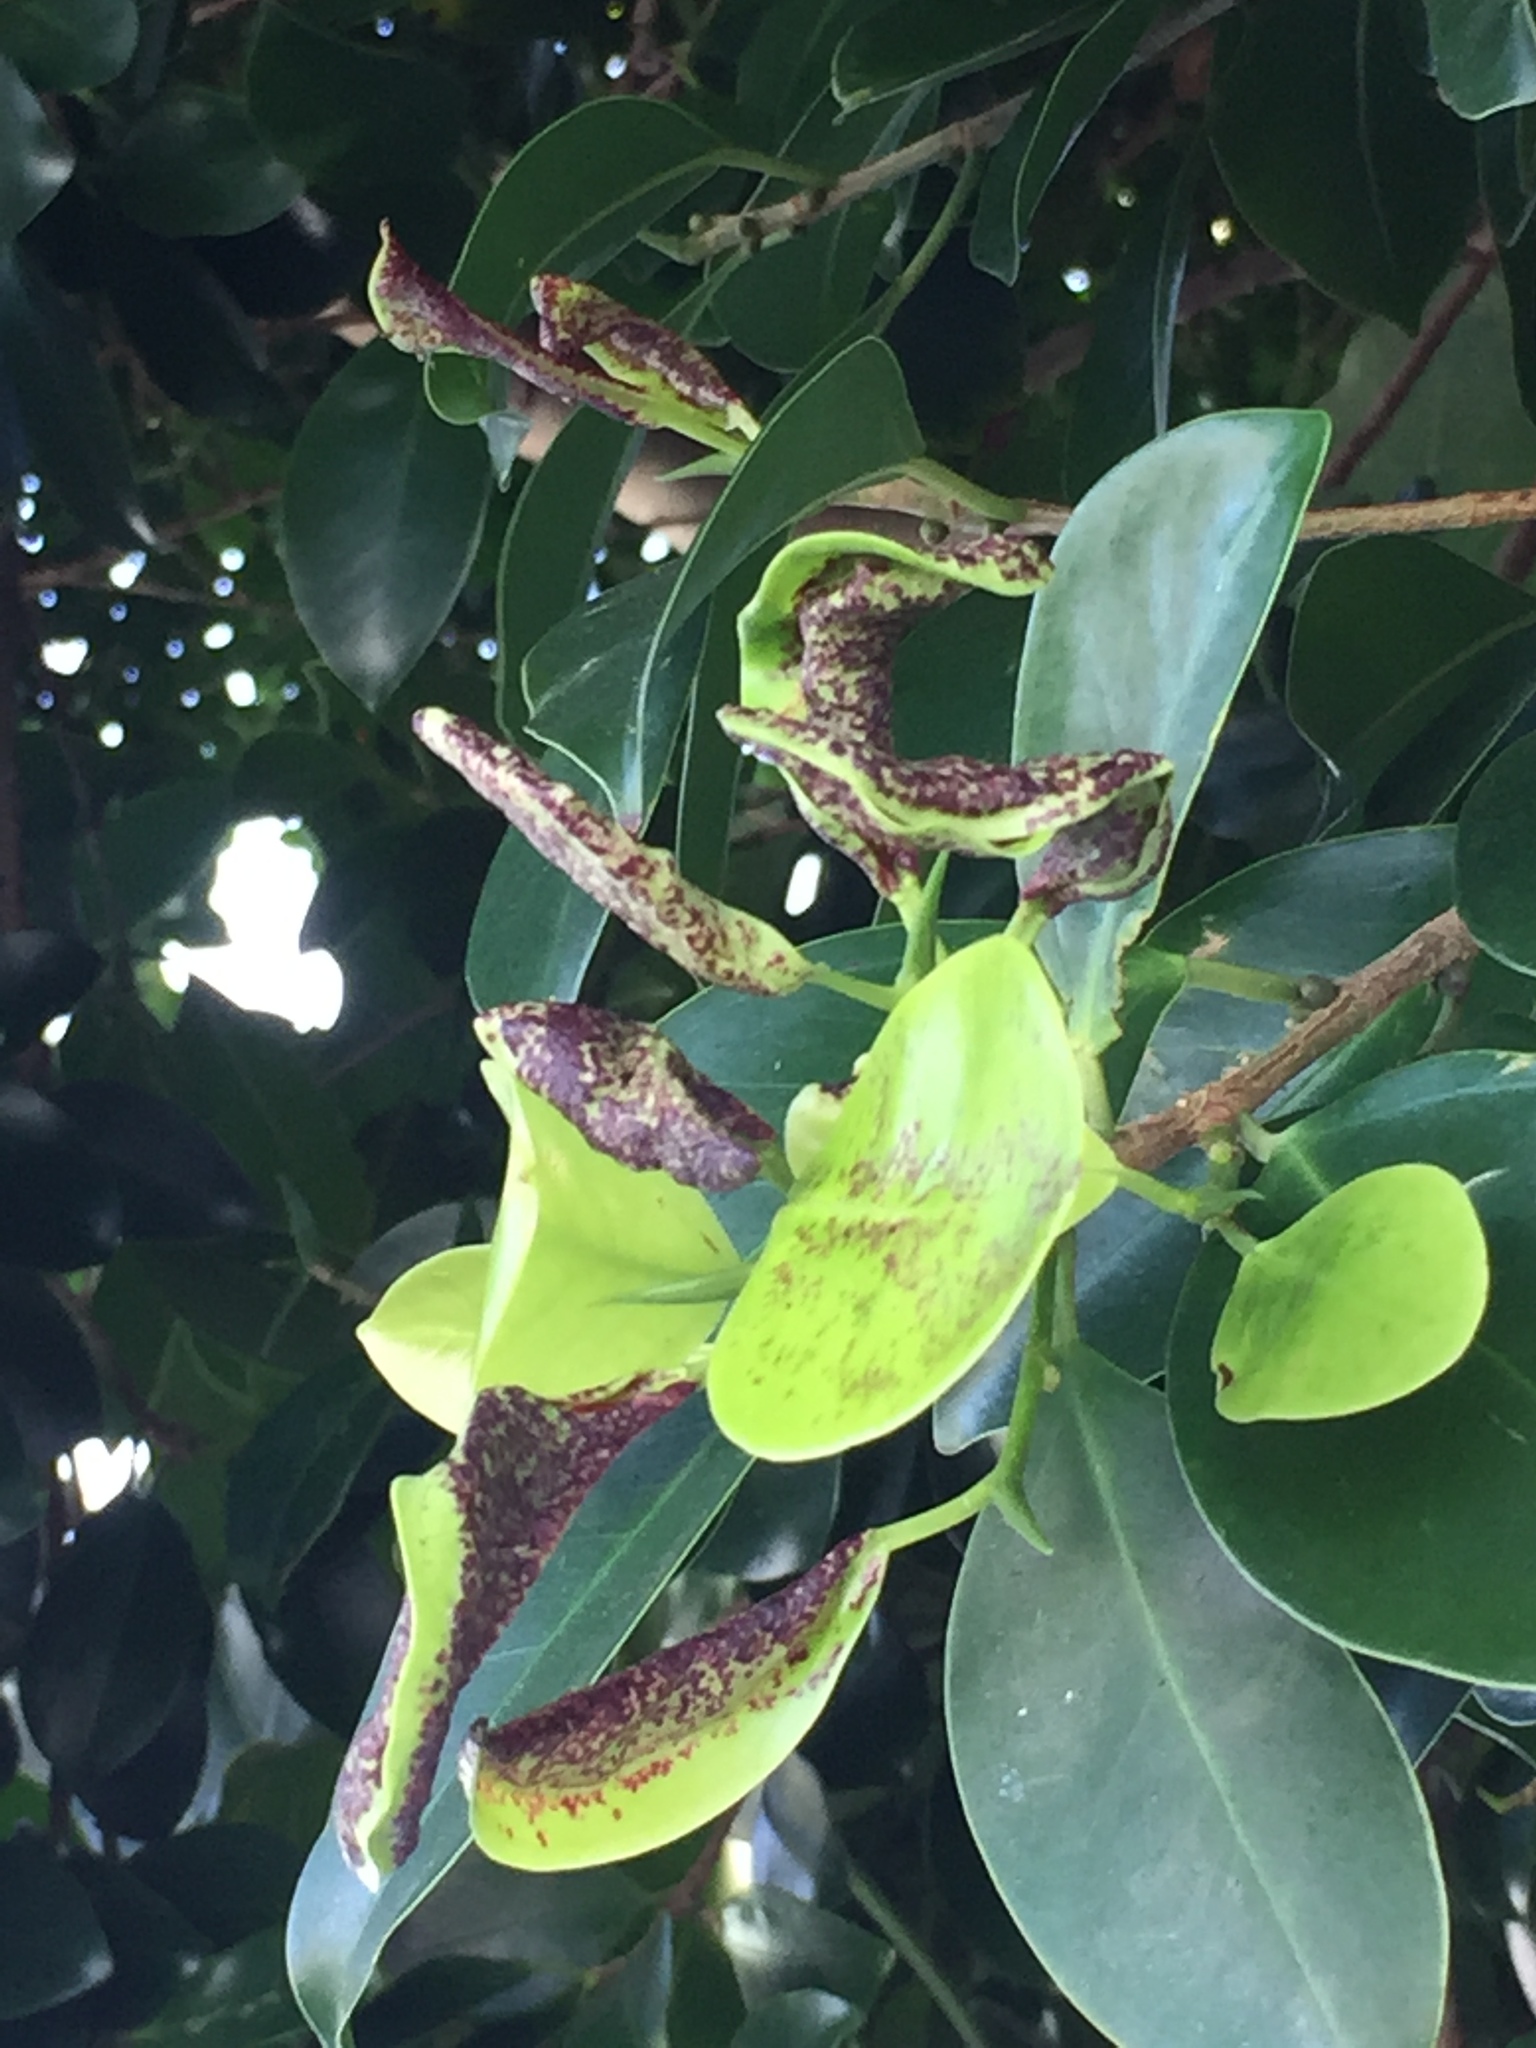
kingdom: Animalia
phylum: Arthropoda
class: Insecta
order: Thysanoptera
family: Phlaeothripidae
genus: Gynaikothrips
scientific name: Gynaikothrips ficorum
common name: Cuban laurel thrips
